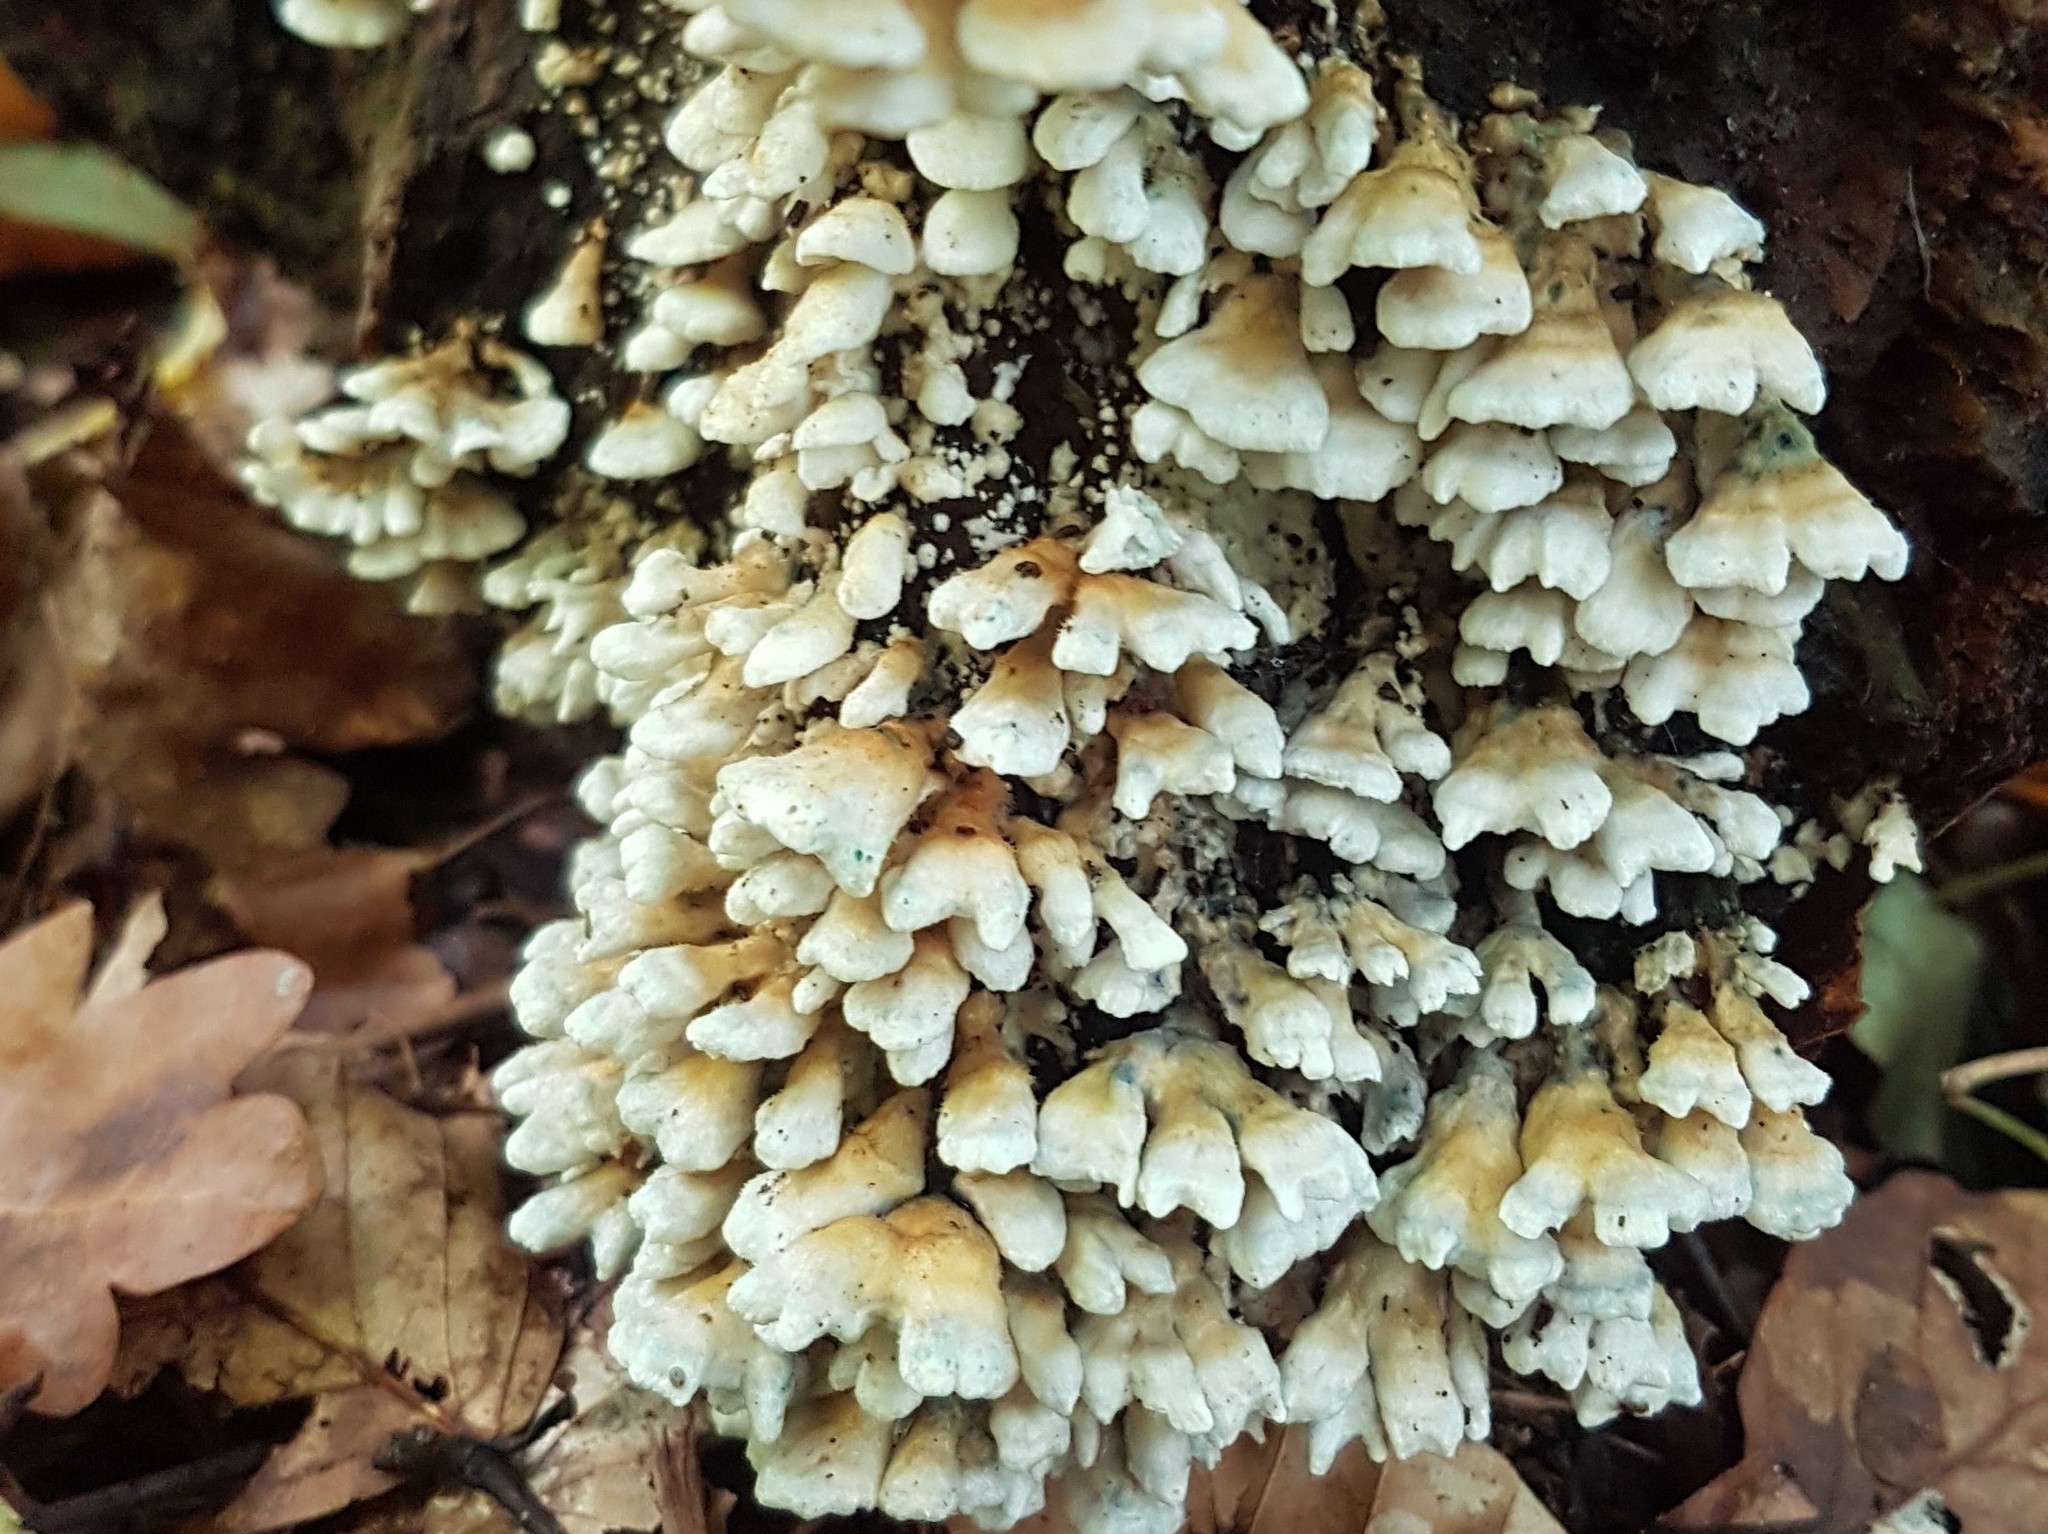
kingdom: Fungi
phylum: Basidiomycota
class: Agaricomycetes
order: Amylocorticiales
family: Amylocorticiaceae
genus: Plicaturopsis
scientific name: Plicaturopsis crispa
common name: Crimped gill
